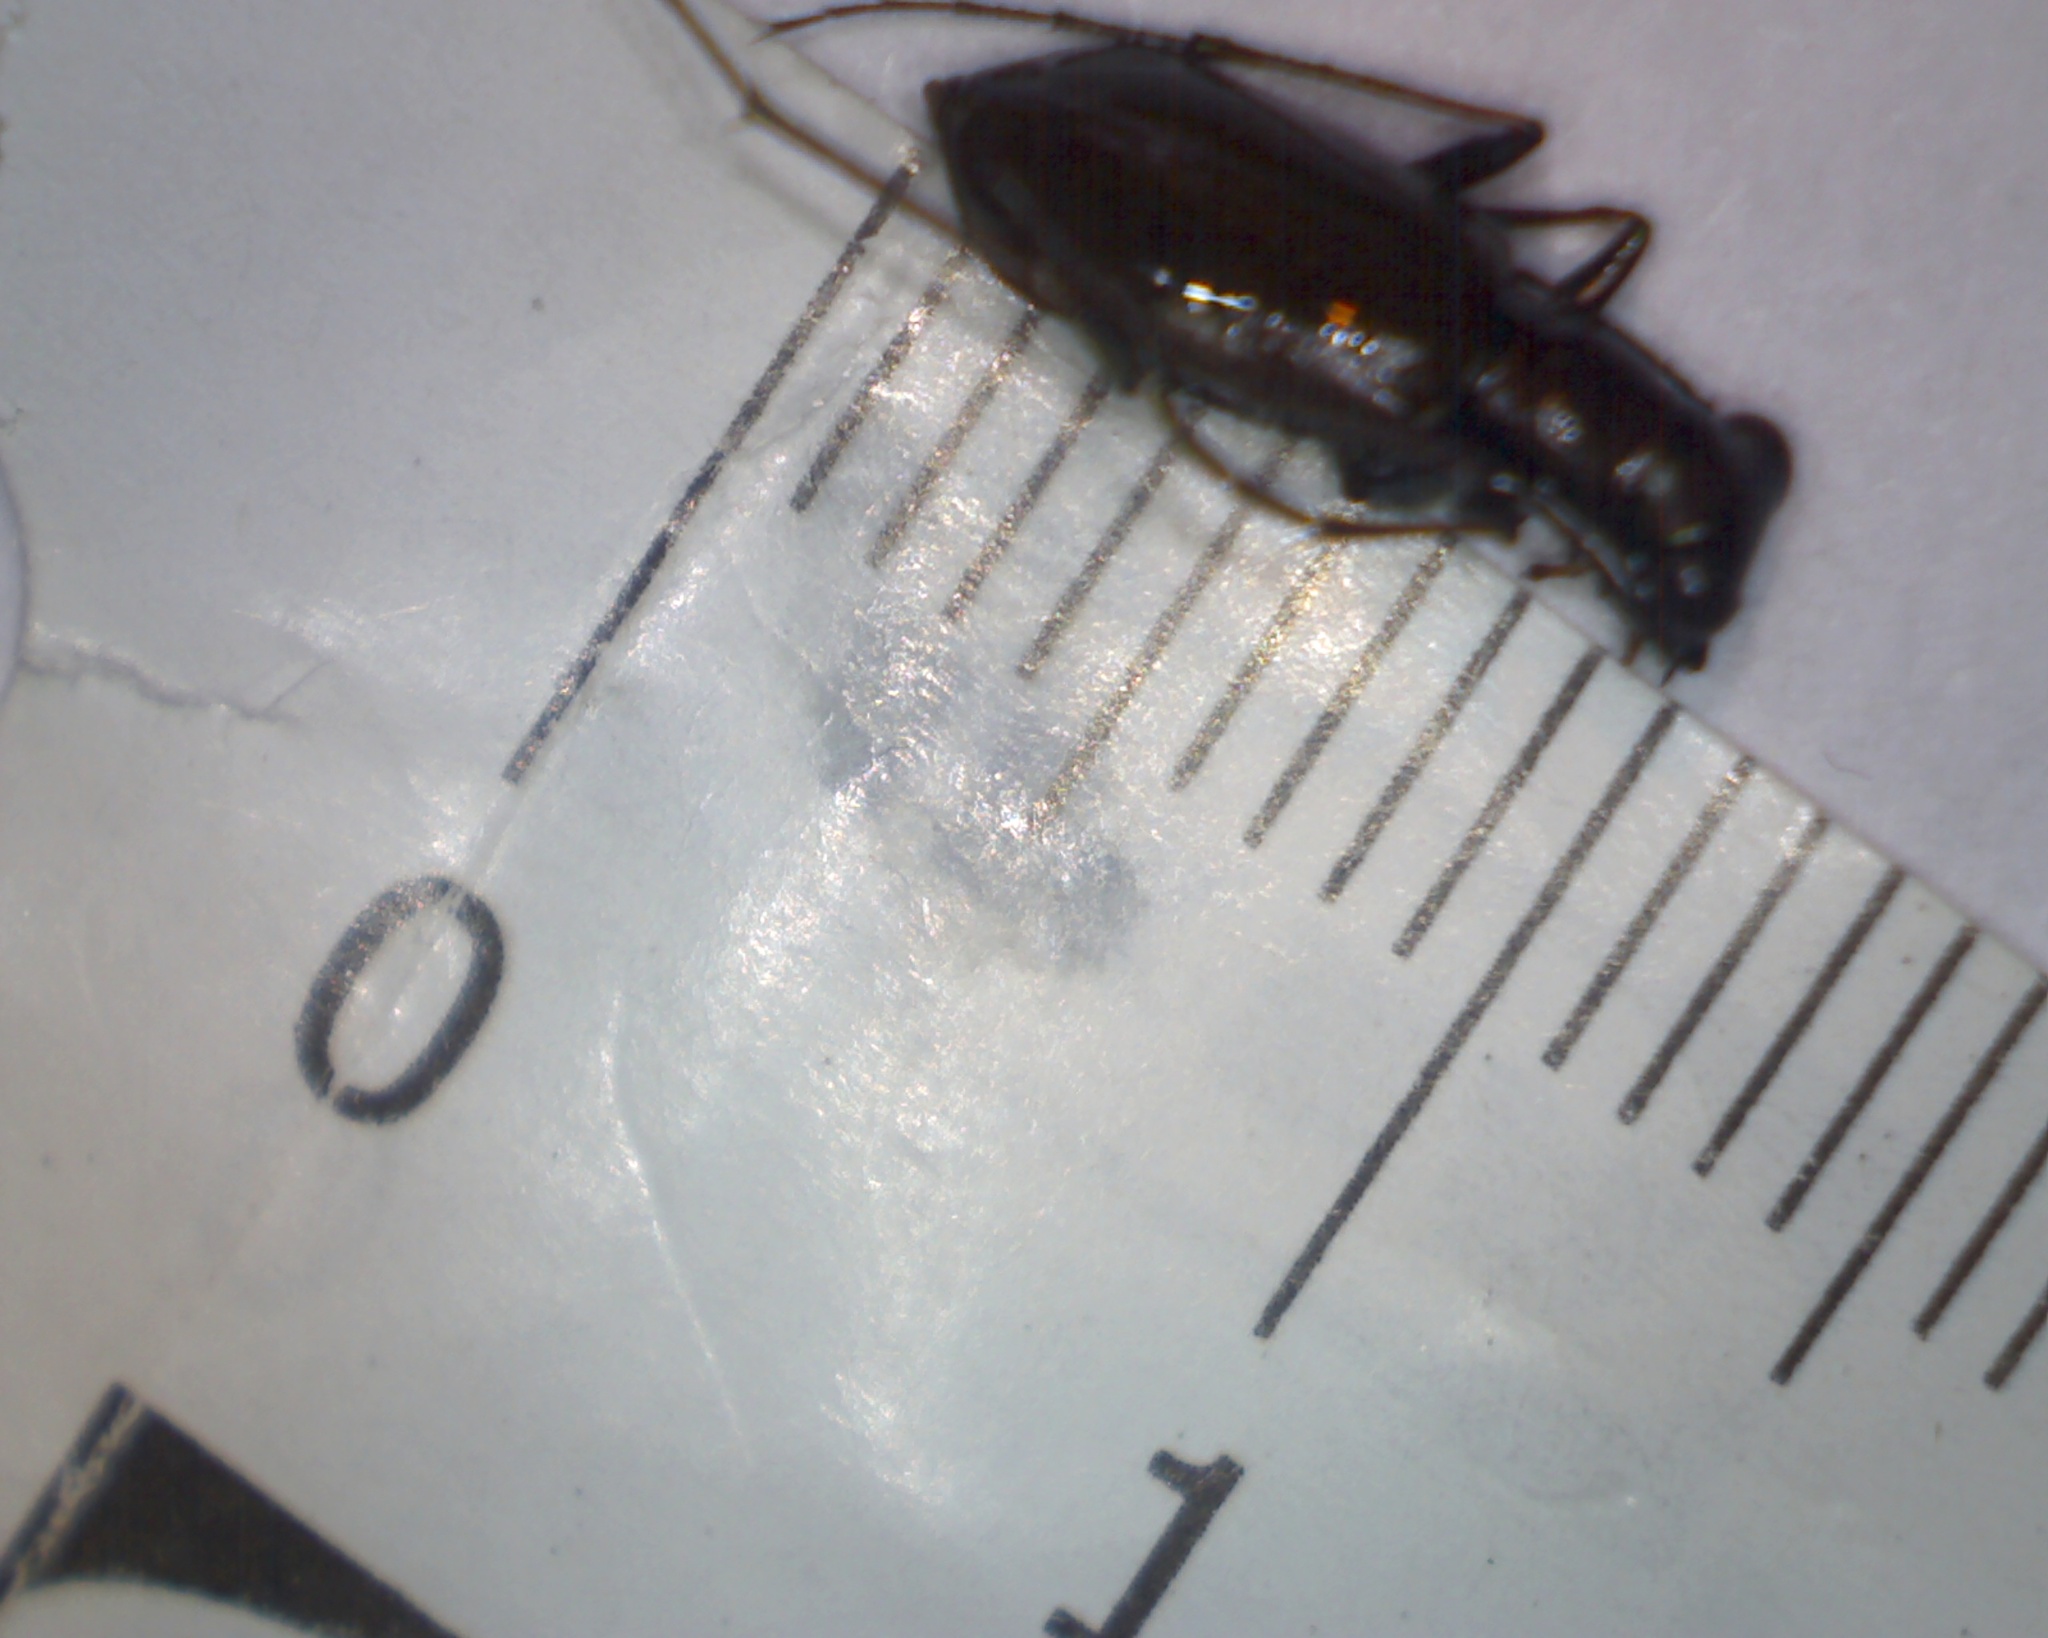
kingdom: Animalia
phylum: Arthropoda
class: Insecta
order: Coleoptera
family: Carabidae
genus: Cylindera
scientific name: Cylindera germanica
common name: Cliff tiger beetle
